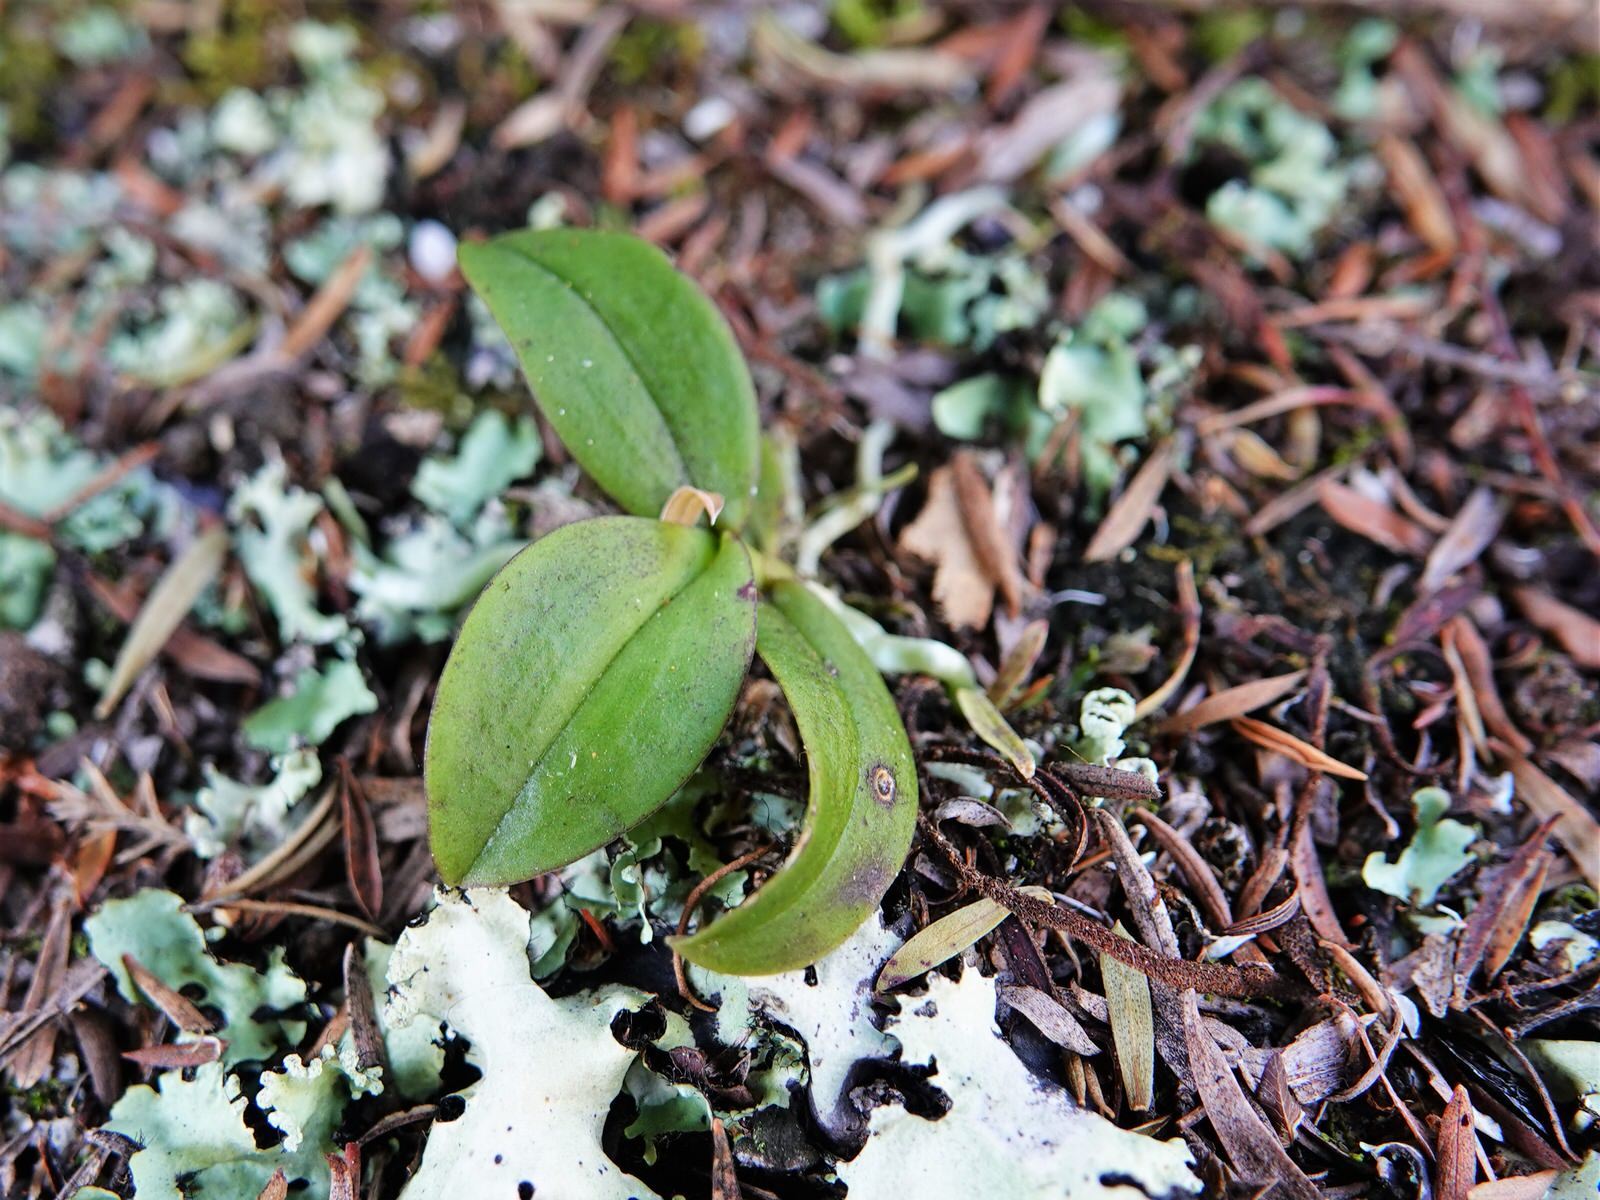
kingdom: Plantae
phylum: Tracheophyta
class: Liliopsida
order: Asparagales
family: Orchidaceae
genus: Drymoanthus
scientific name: Drymoanthus adversus
